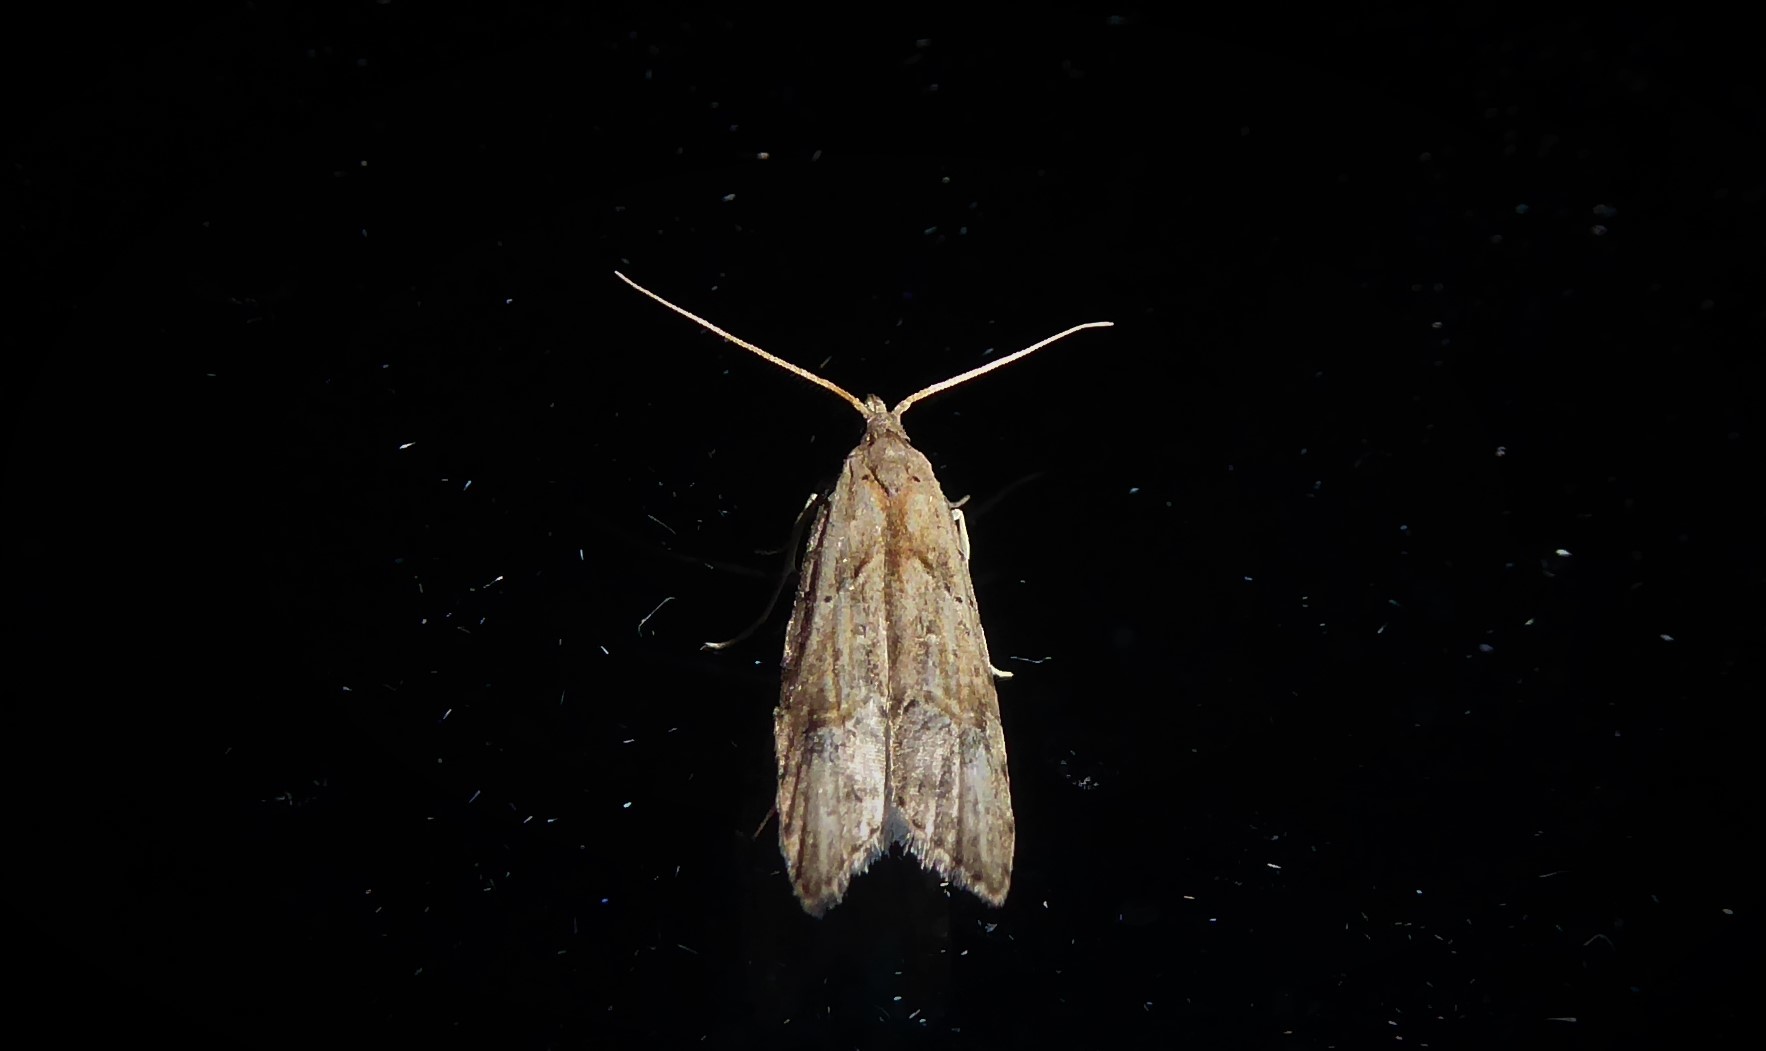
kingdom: Animalia
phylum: Arthropoda
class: Insecta
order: Lepidoptera
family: Carposinidae
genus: Carposina
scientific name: Carposina rubophaga
